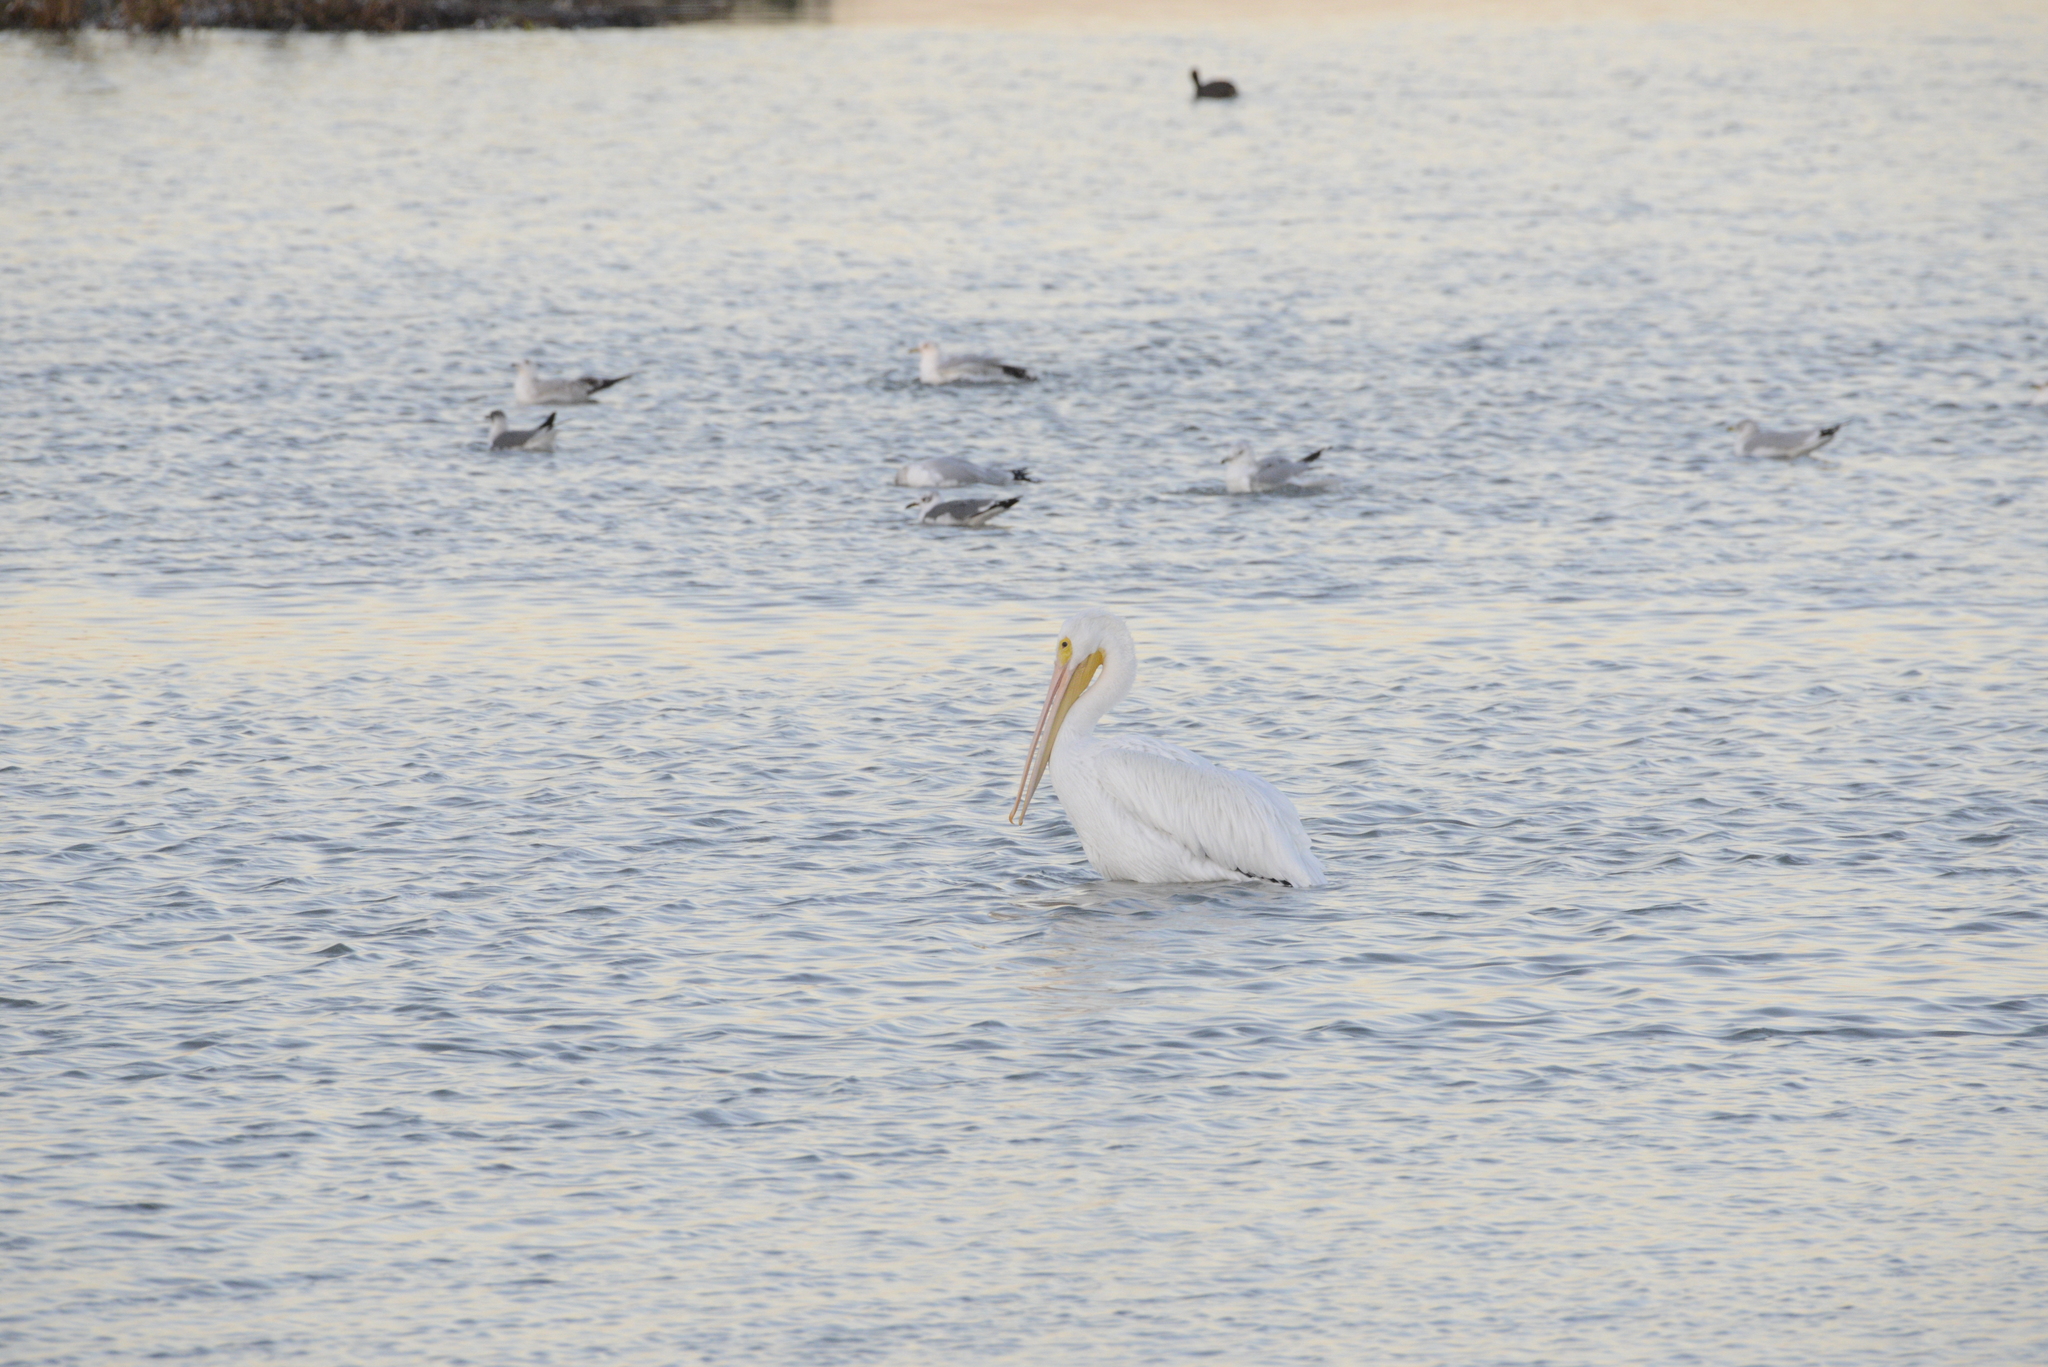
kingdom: Animalia
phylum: Chordata
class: Aves
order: Pelecaniformes
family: Pelecanidae
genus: Pelecanus
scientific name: Pelecanus erythrorhynchos
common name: American white pelican
